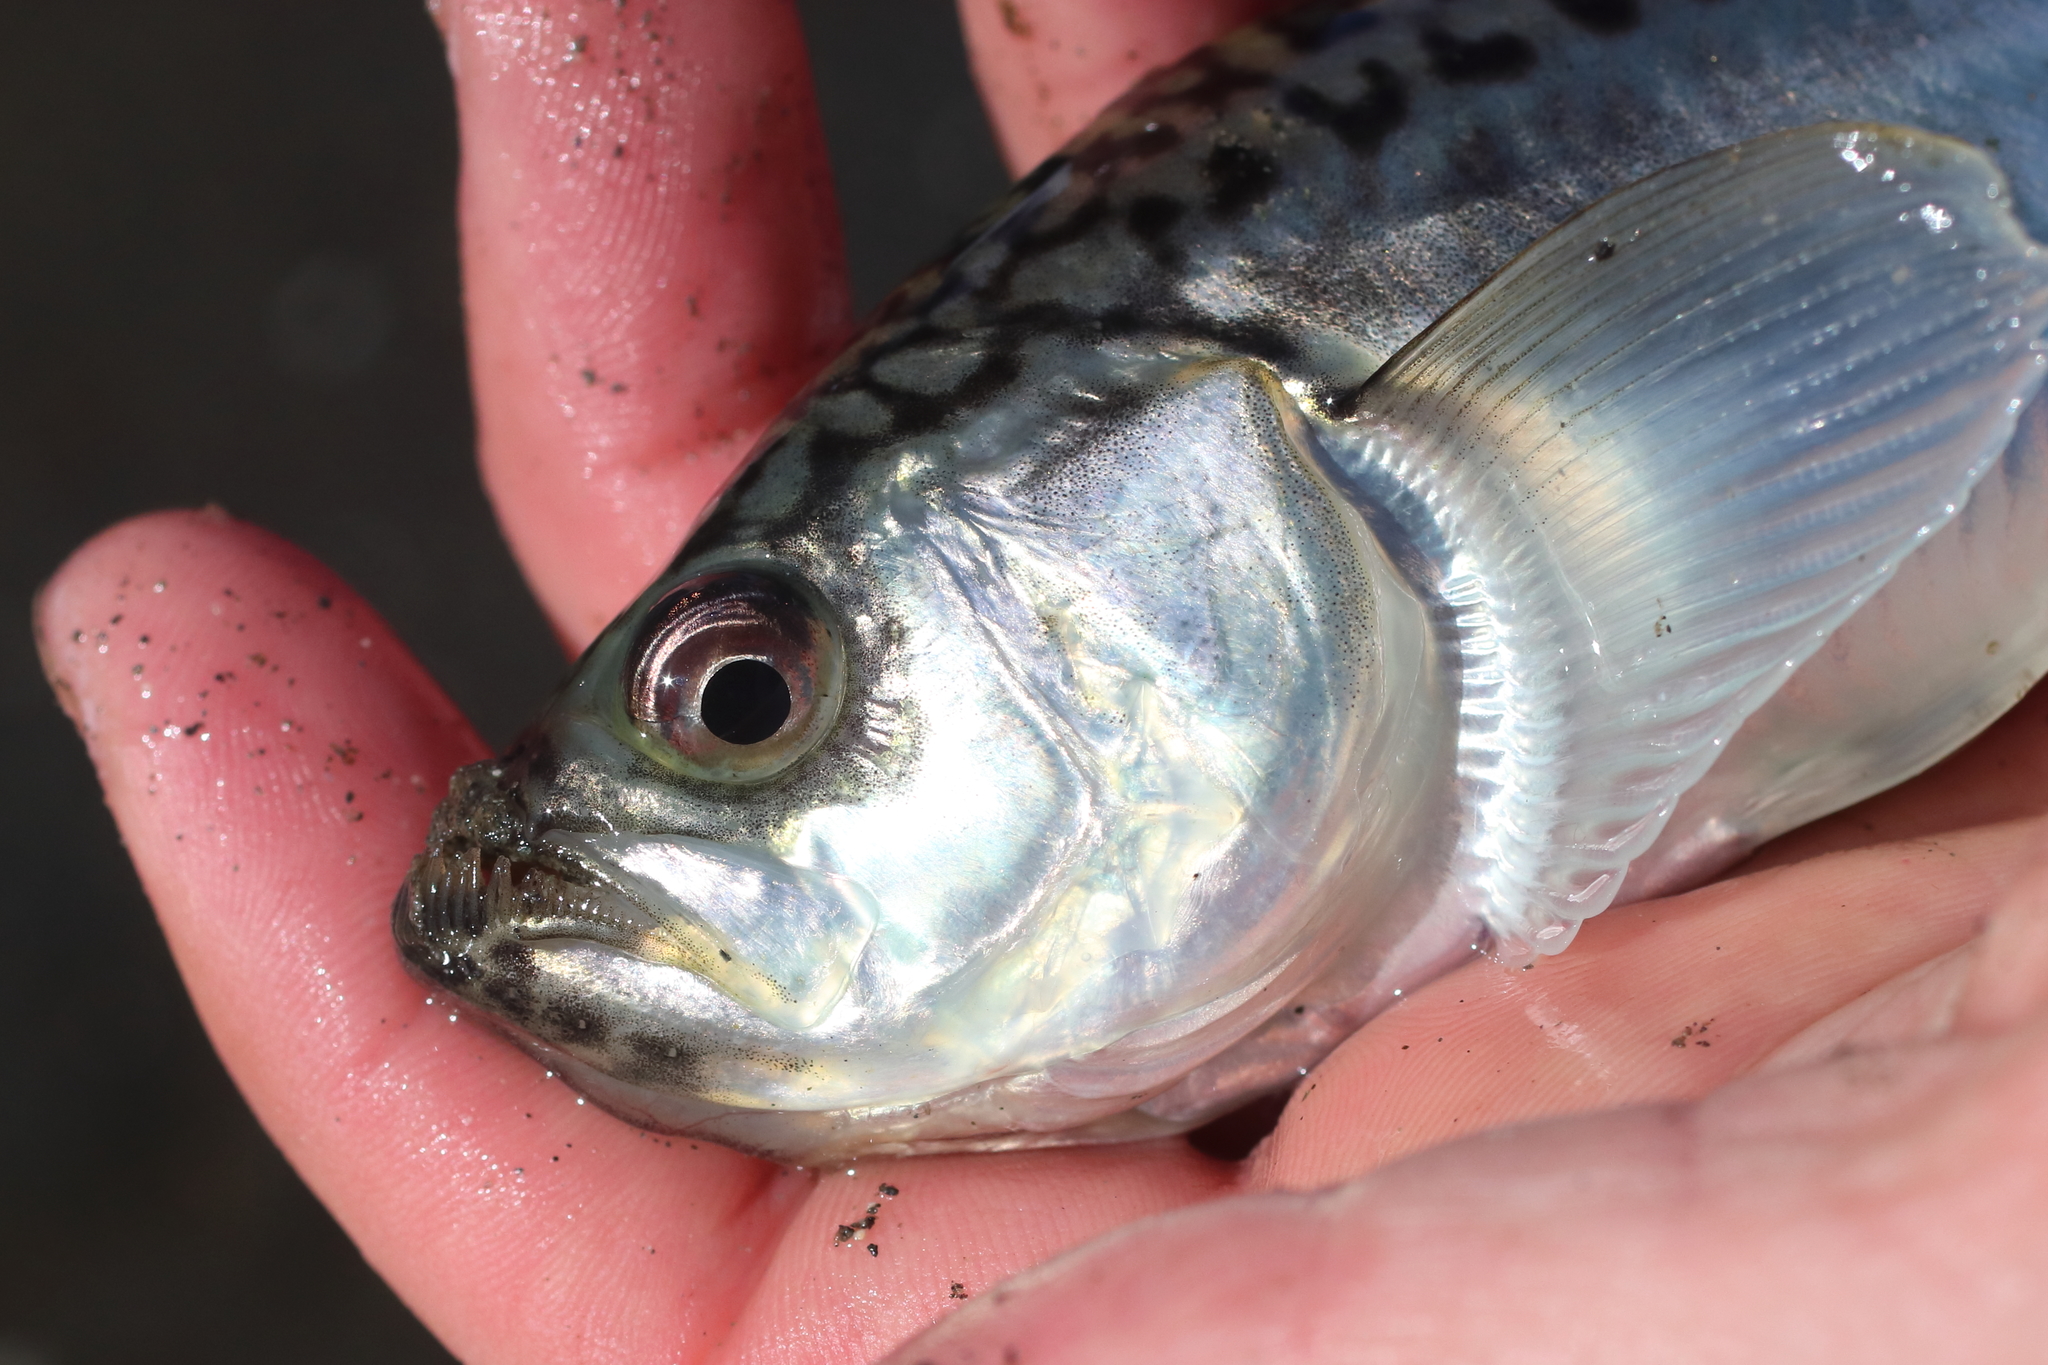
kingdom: Animalia
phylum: Chordata
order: Perciformes
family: Trichodontidae
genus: Trichodon
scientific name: Trichodon trichodon
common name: Pacific sandfish
